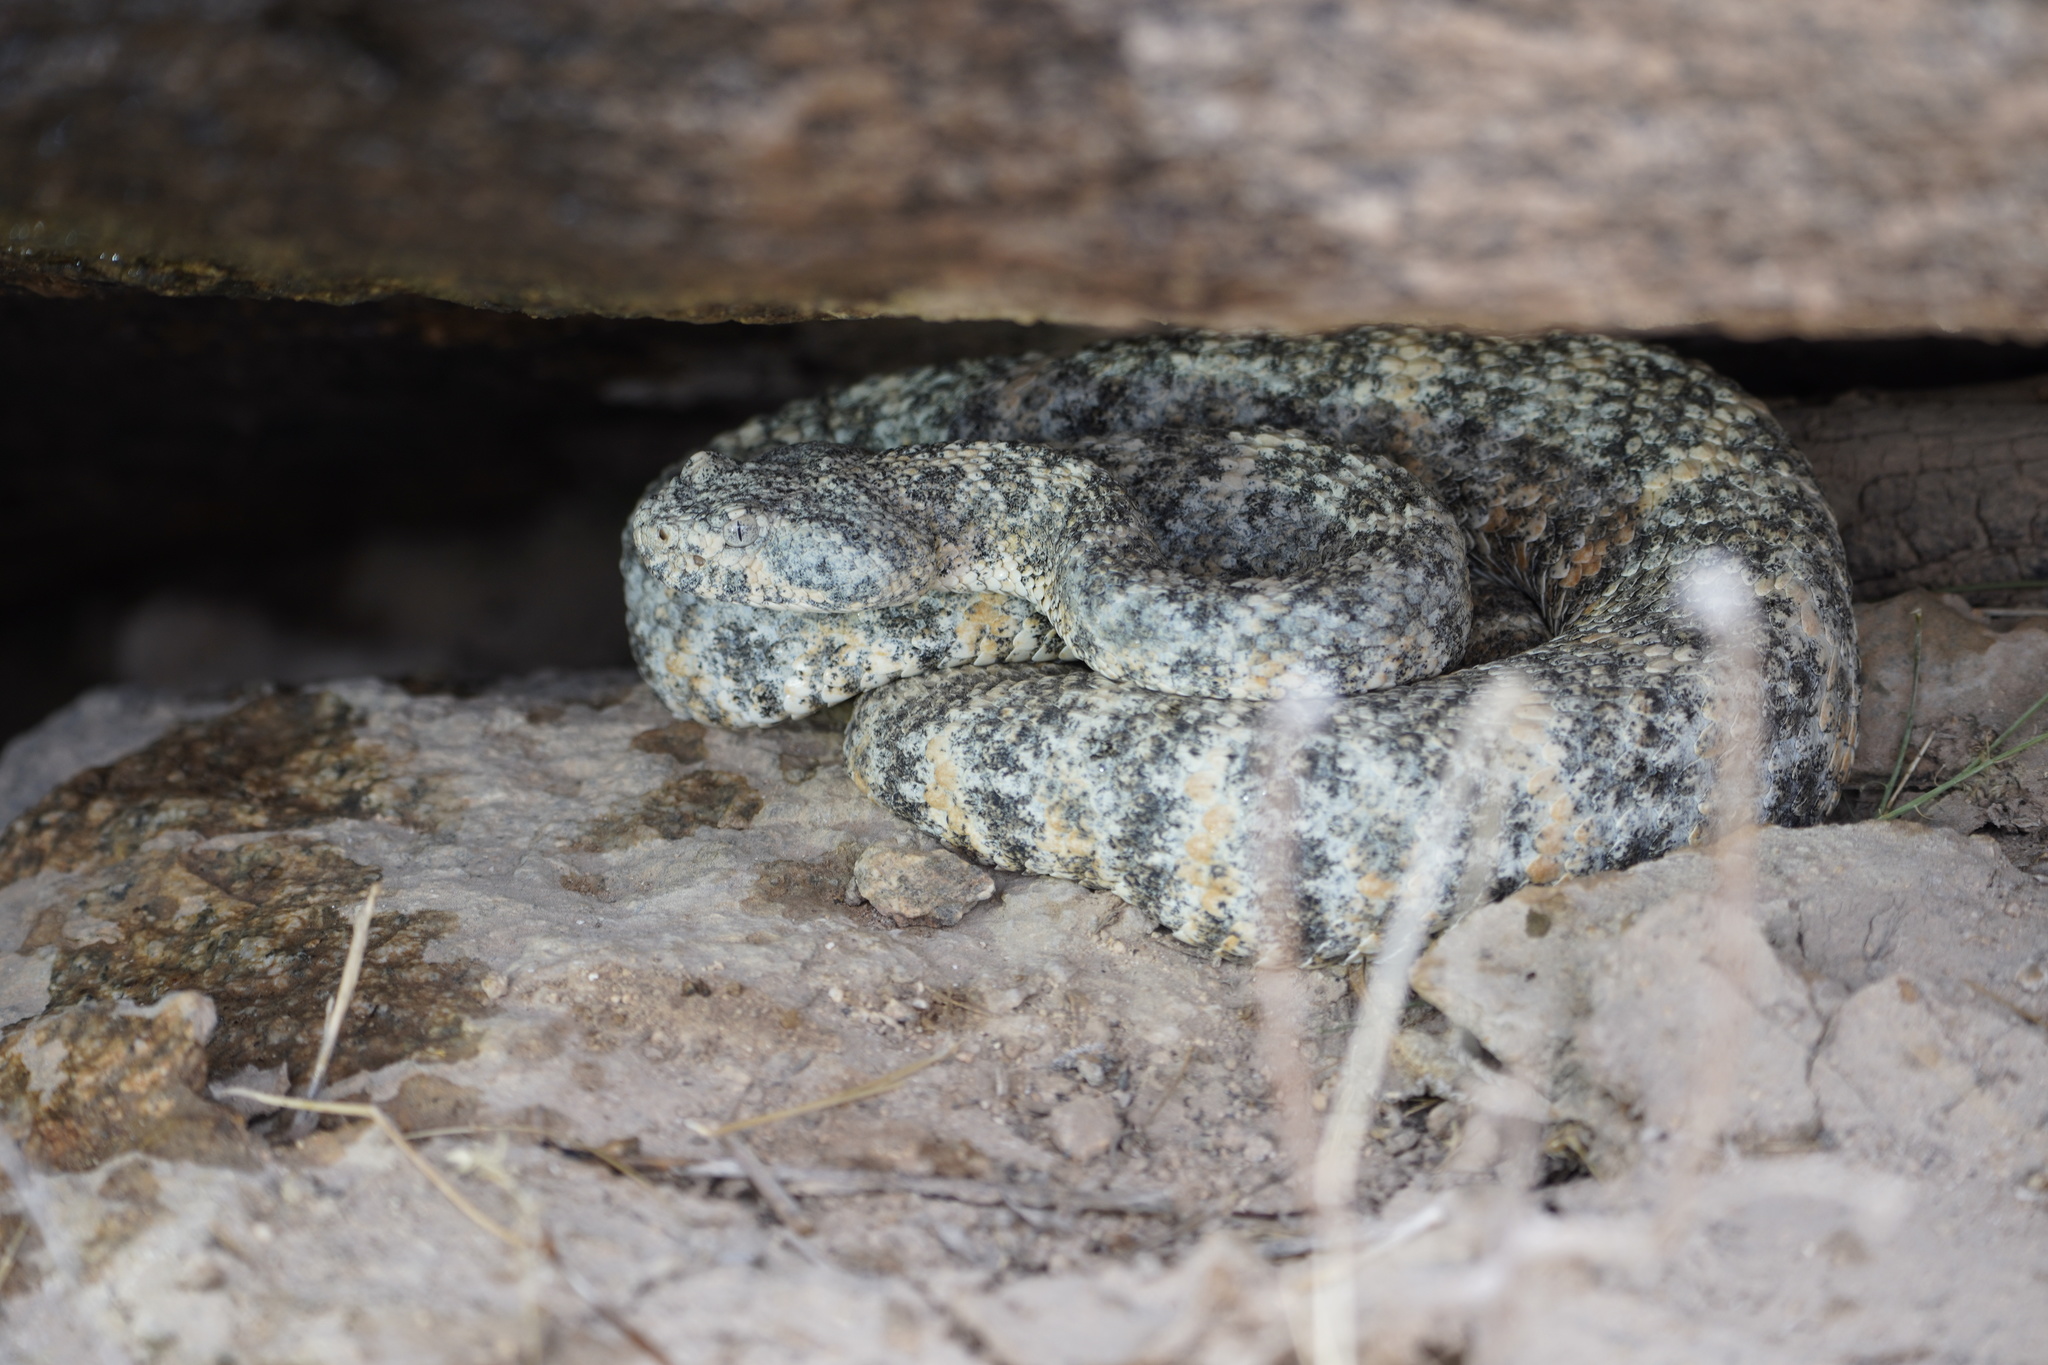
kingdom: Animalia
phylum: Chordata
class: Squamata
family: Viperidae
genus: Crotalus
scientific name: Crotalus pyrrhus
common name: Southwestern speckled rattlesnake
